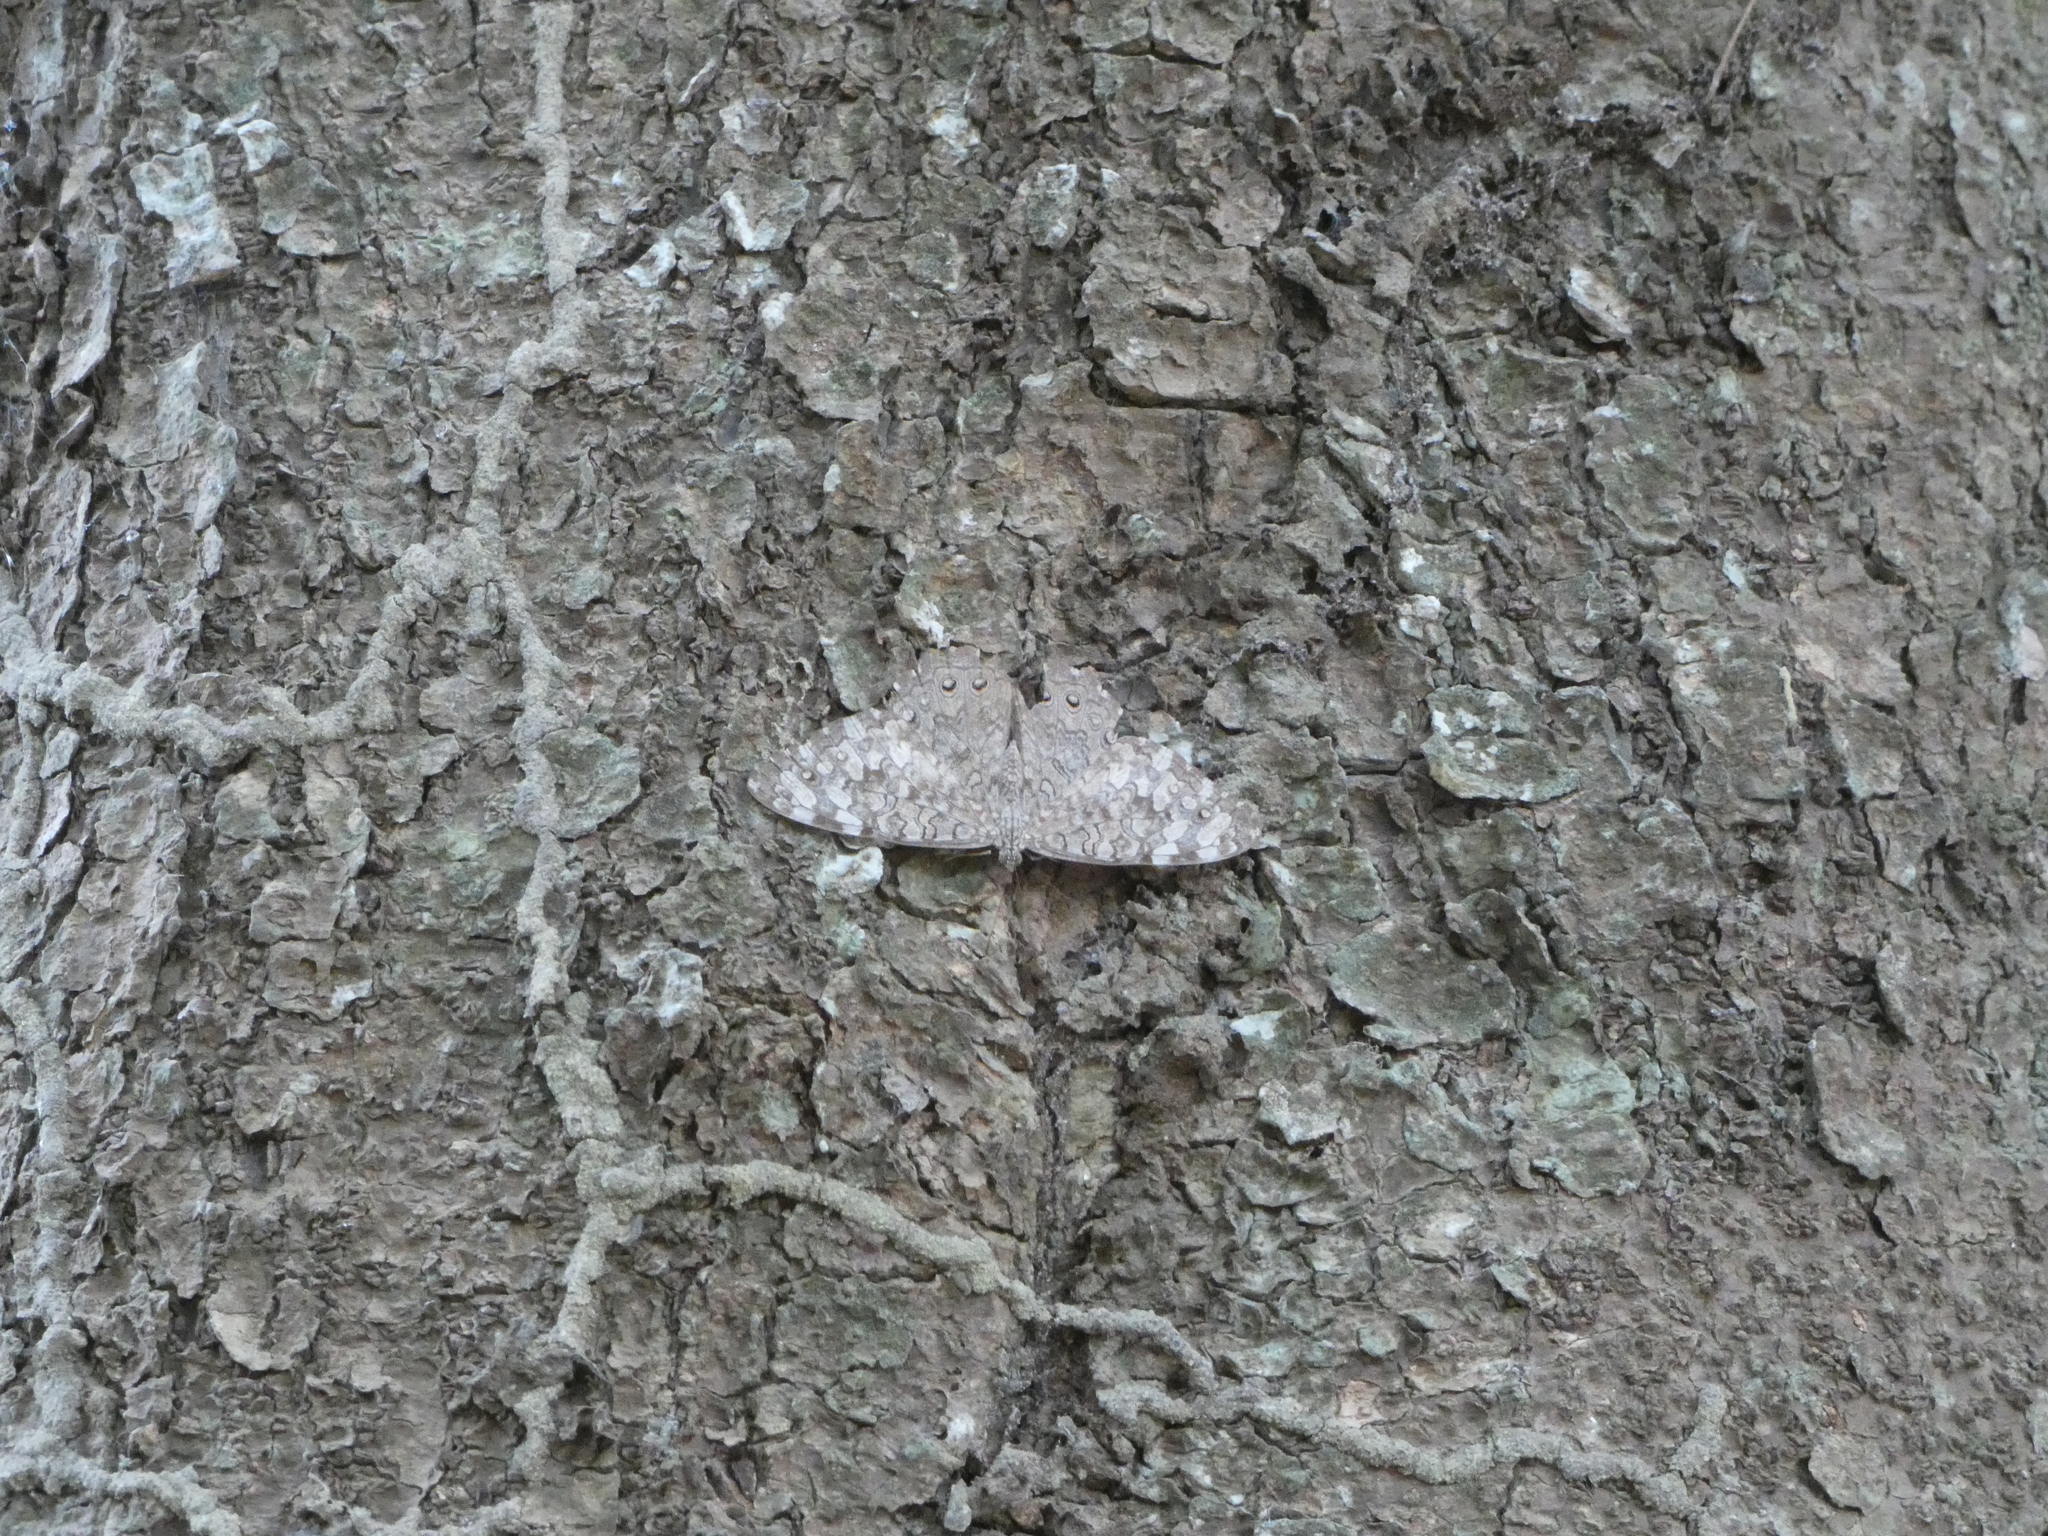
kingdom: Animalia
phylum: Arthropoda
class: Insecta
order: Lepidoptera
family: Nymphalidae
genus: Hamadryas
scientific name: Hamadryas februa
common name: Gray cracker
